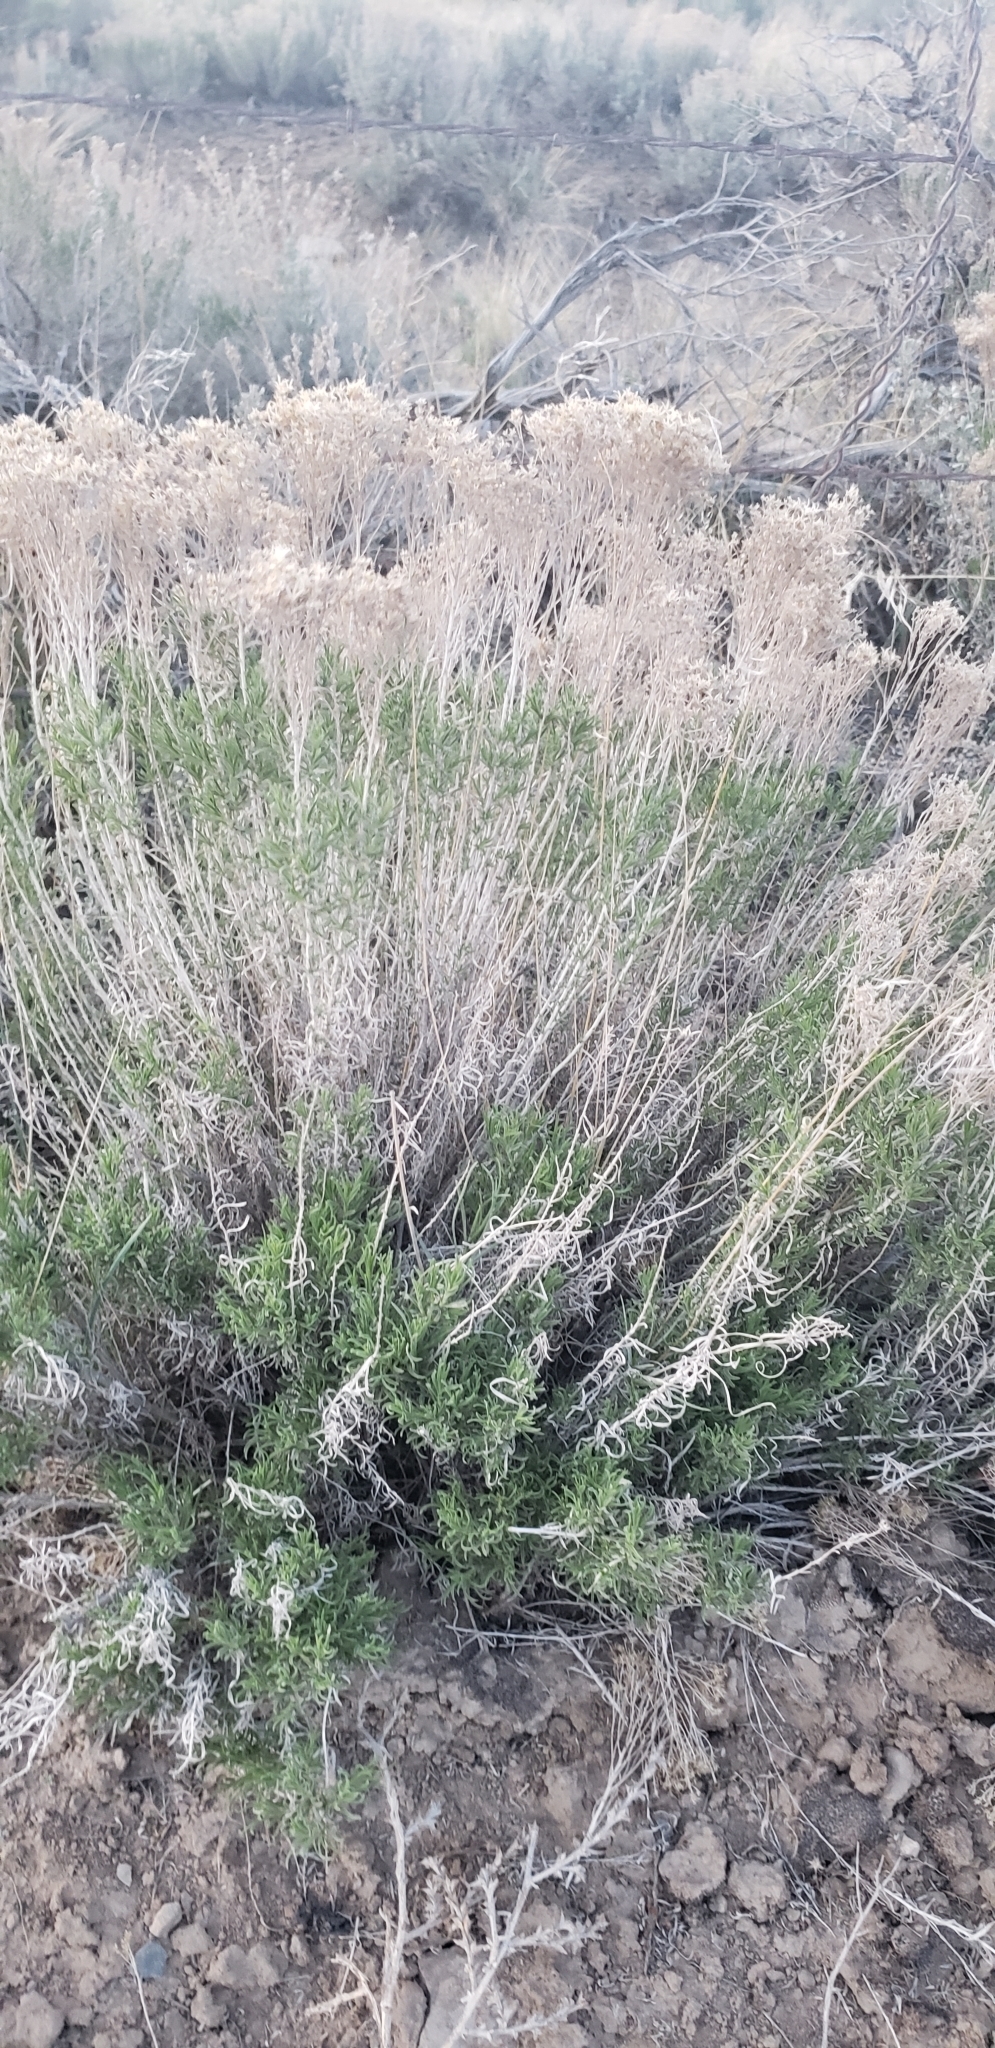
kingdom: Plantae
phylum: Tracheophyta
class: Magnoliopsida
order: Asterales
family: Asteraceae
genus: Ericameria
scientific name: Ericameria nauseosa
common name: Rubber rabbitbrush
